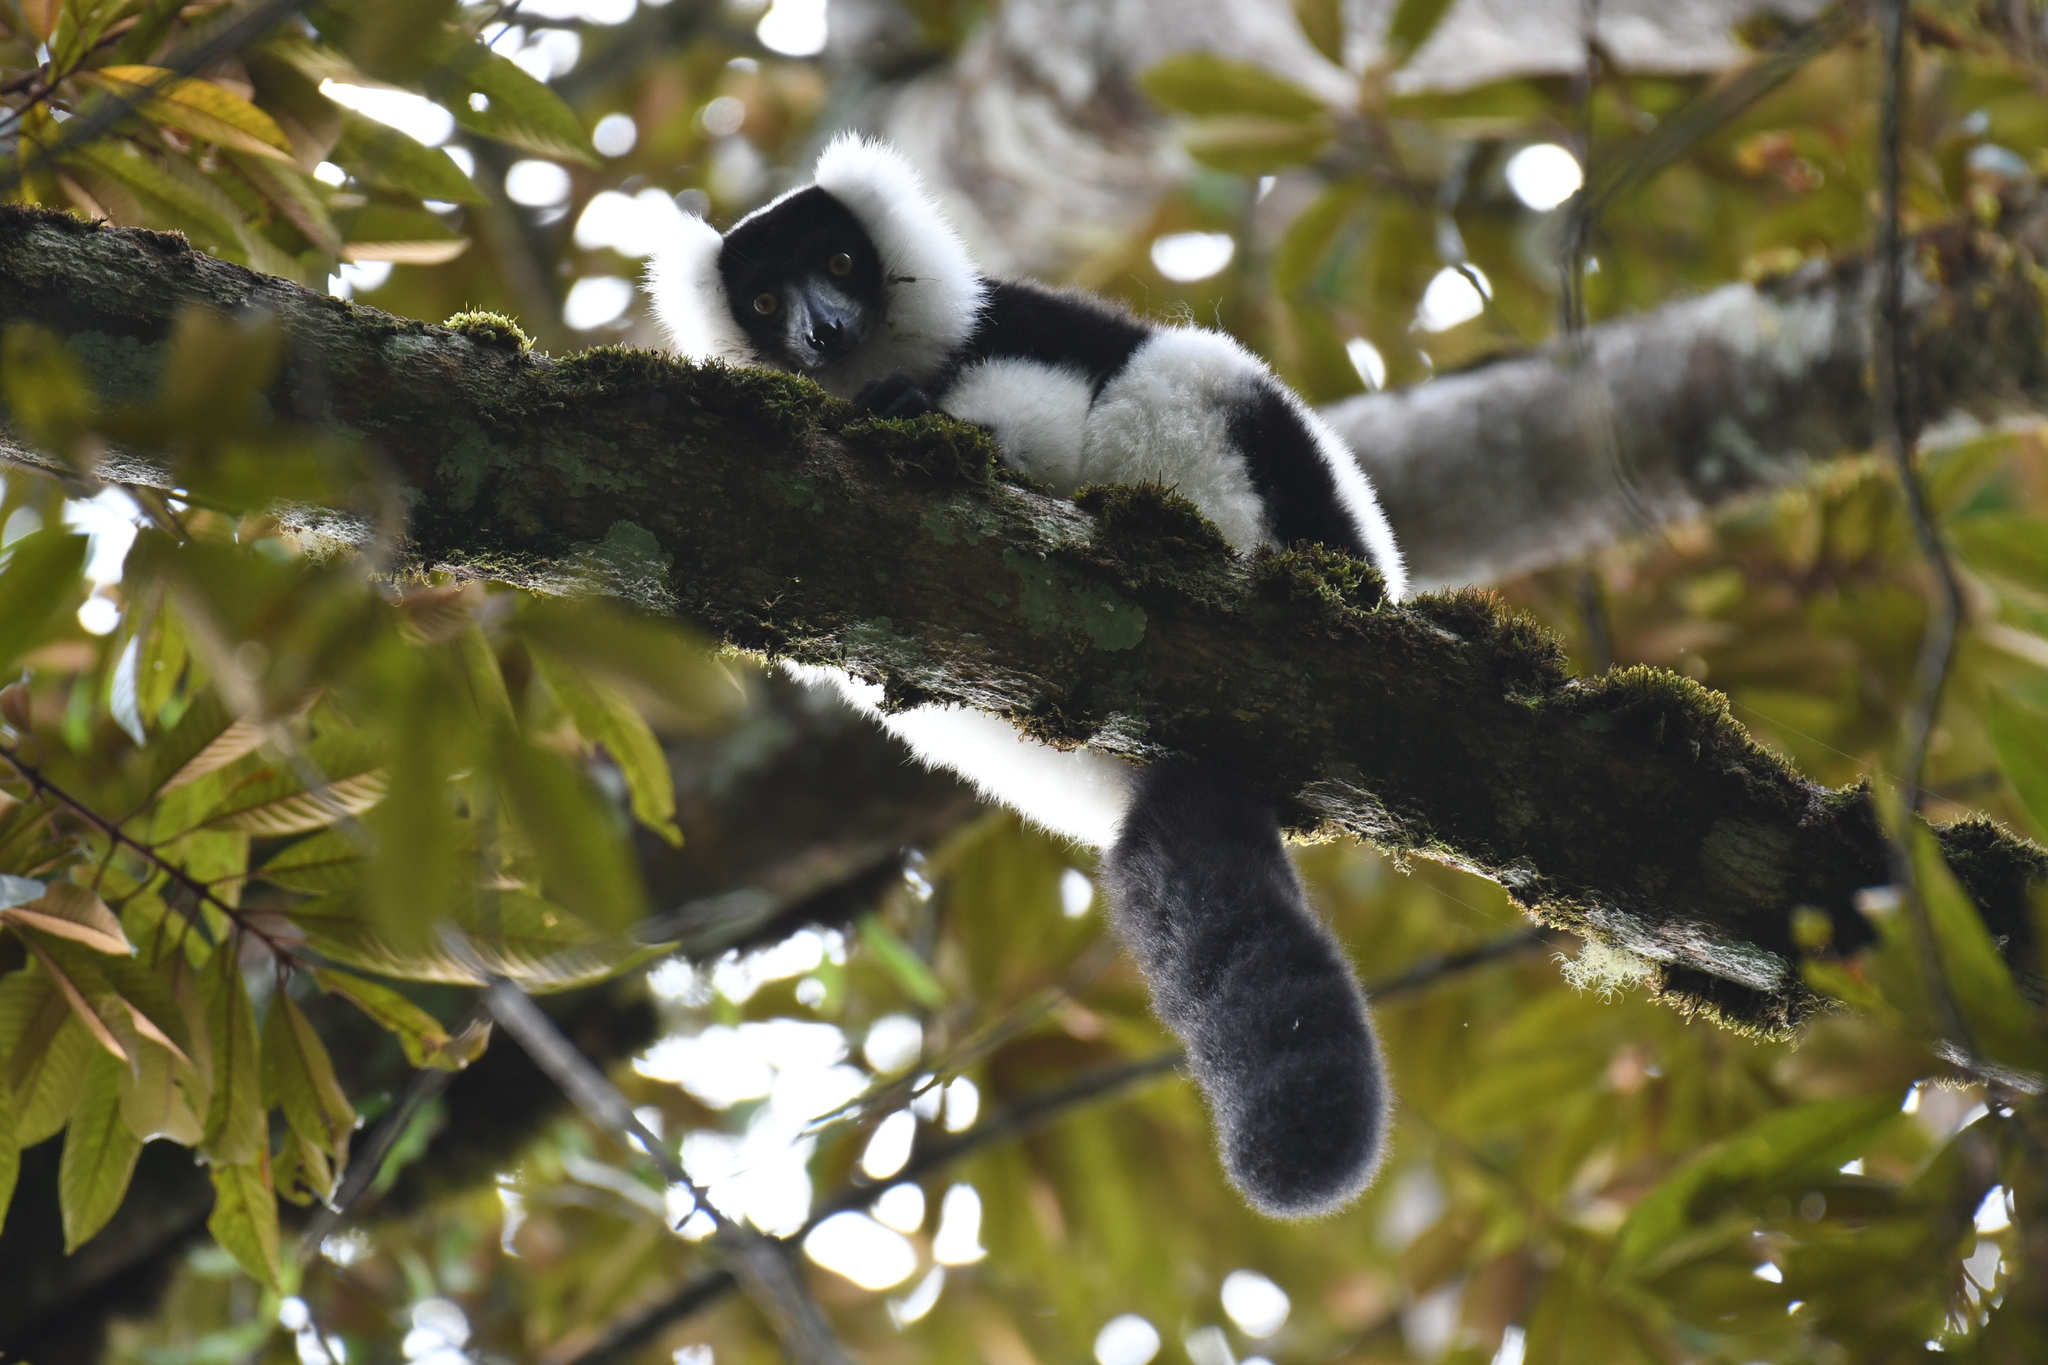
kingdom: Animalia
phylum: Chordata
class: Mammalia
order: Primates
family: Lemuridae
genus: Varecia
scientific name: Varecia variegata
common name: Black-and-white ruffed lemur
